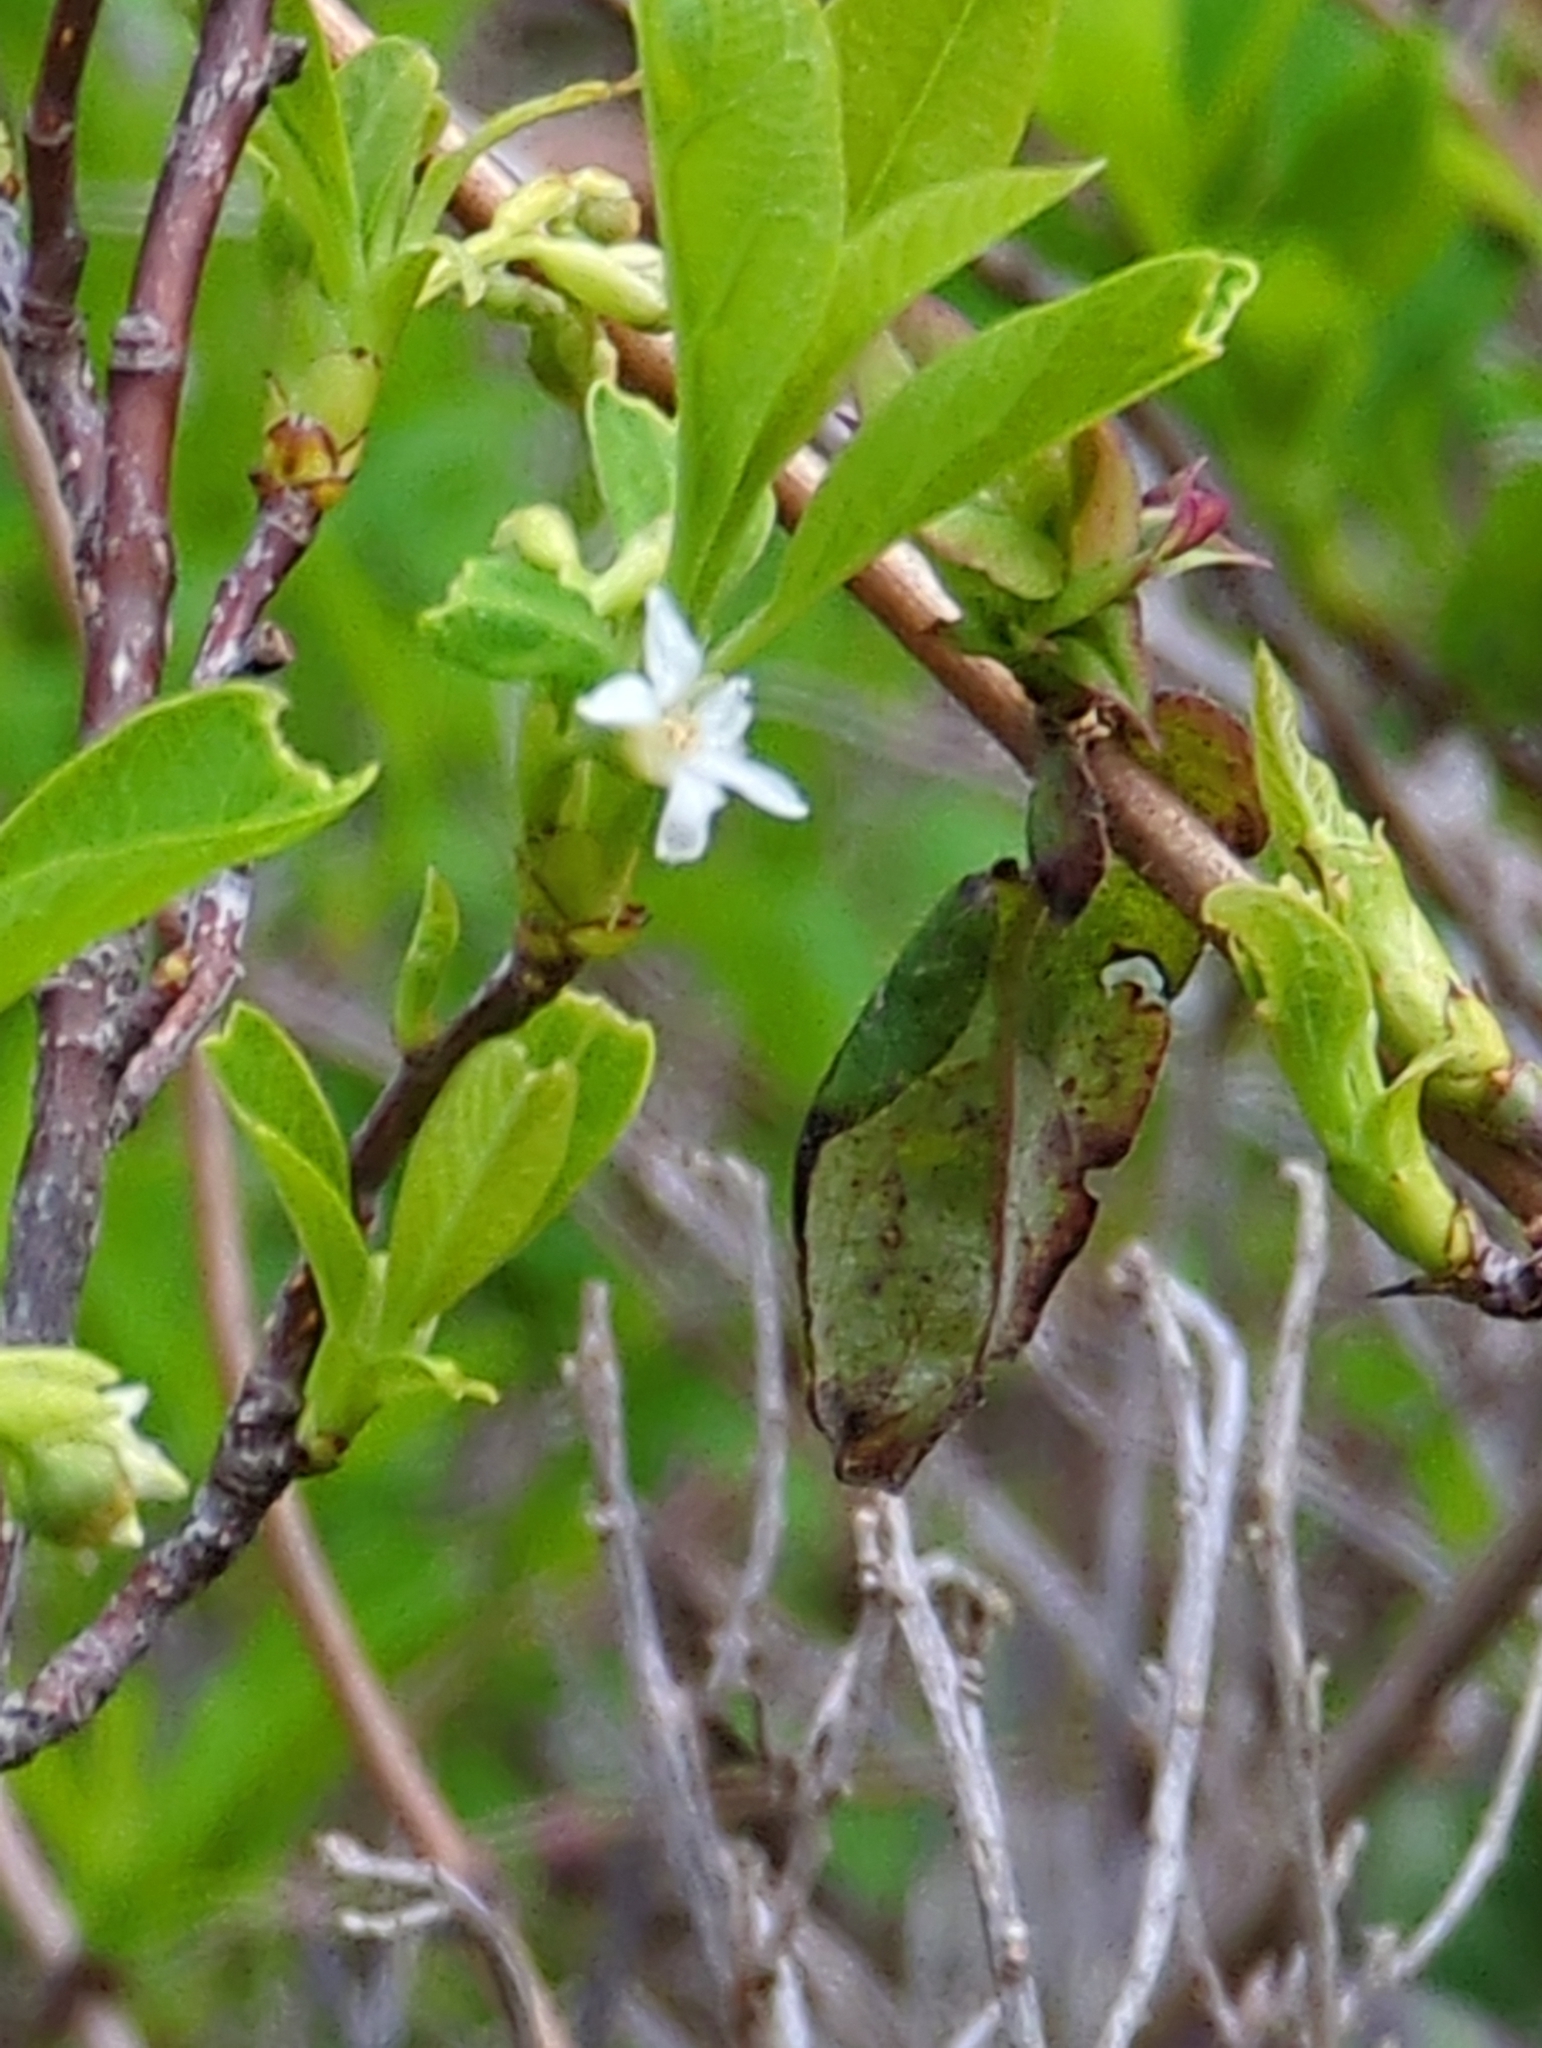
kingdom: Plantae
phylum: Tracheophyta
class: Magnoliopsida
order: Rosales
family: Rosaceae
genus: Oemleria
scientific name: Oemleria cerasiformis
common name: Osoberry
